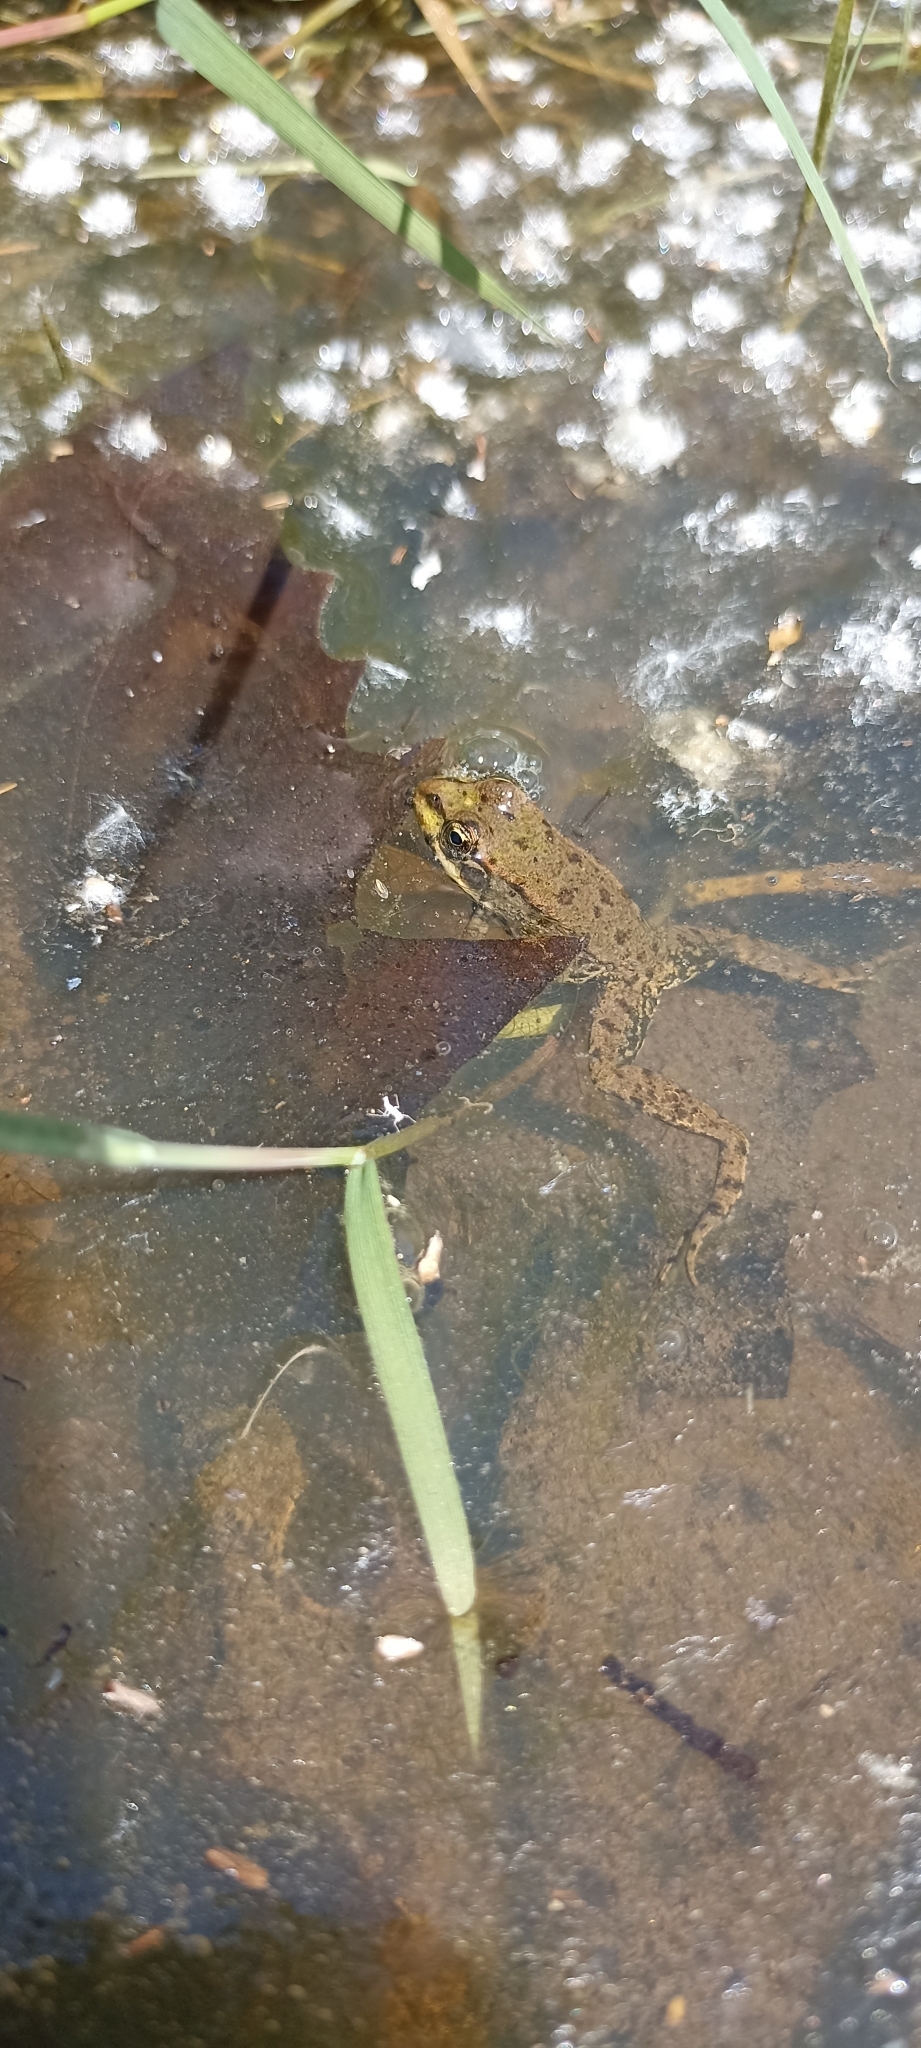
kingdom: Animalia
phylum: Chordata
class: Amphibia
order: Anura
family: Ranidae
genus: Pelophylax
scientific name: Pelophylax
